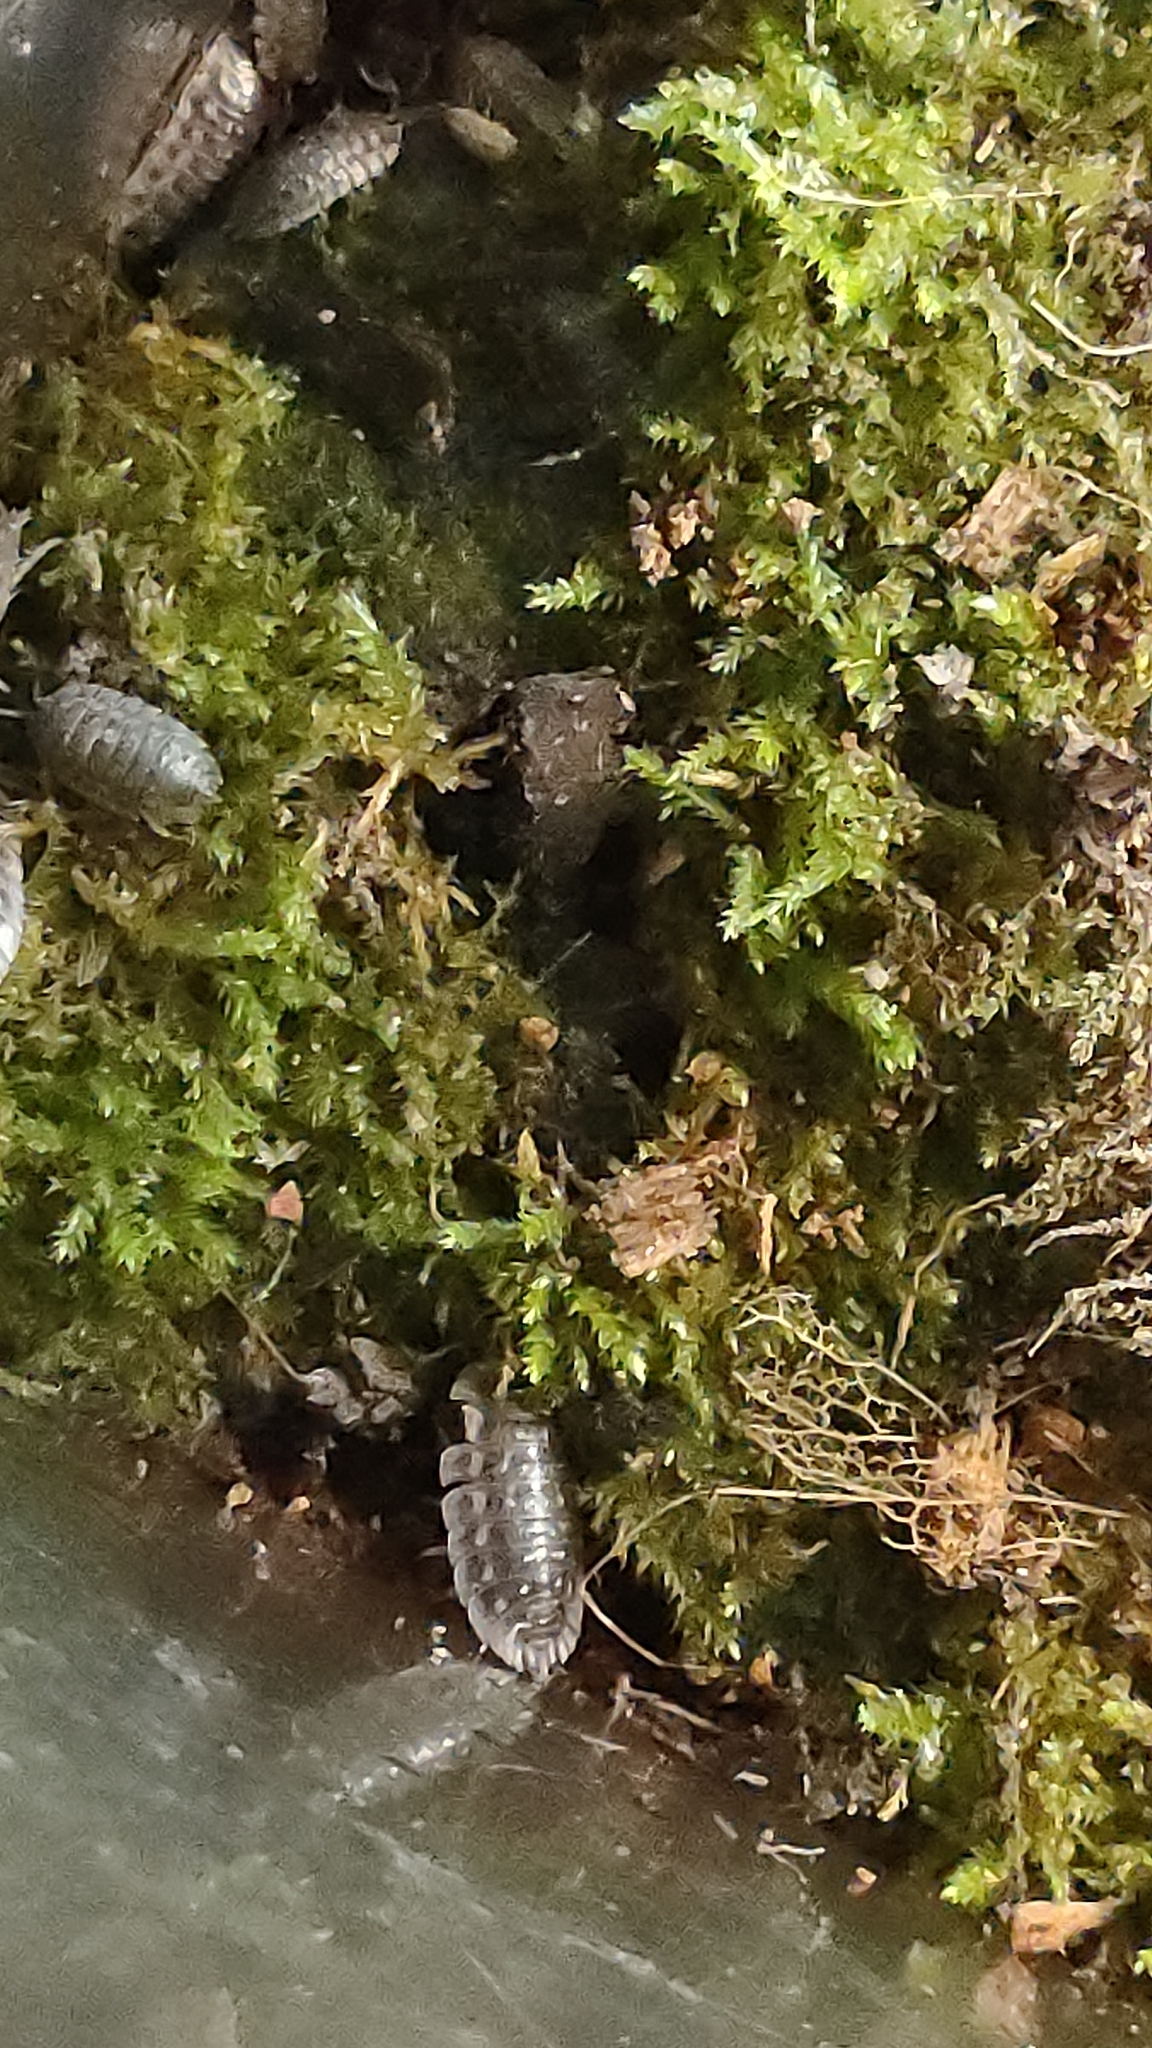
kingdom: Animalia
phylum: Arthropoda
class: Malacostraca
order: Isopoda
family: Oniscidae
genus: Oniscus
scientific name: Oniscus asellus
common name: Common shiny woodlouse
